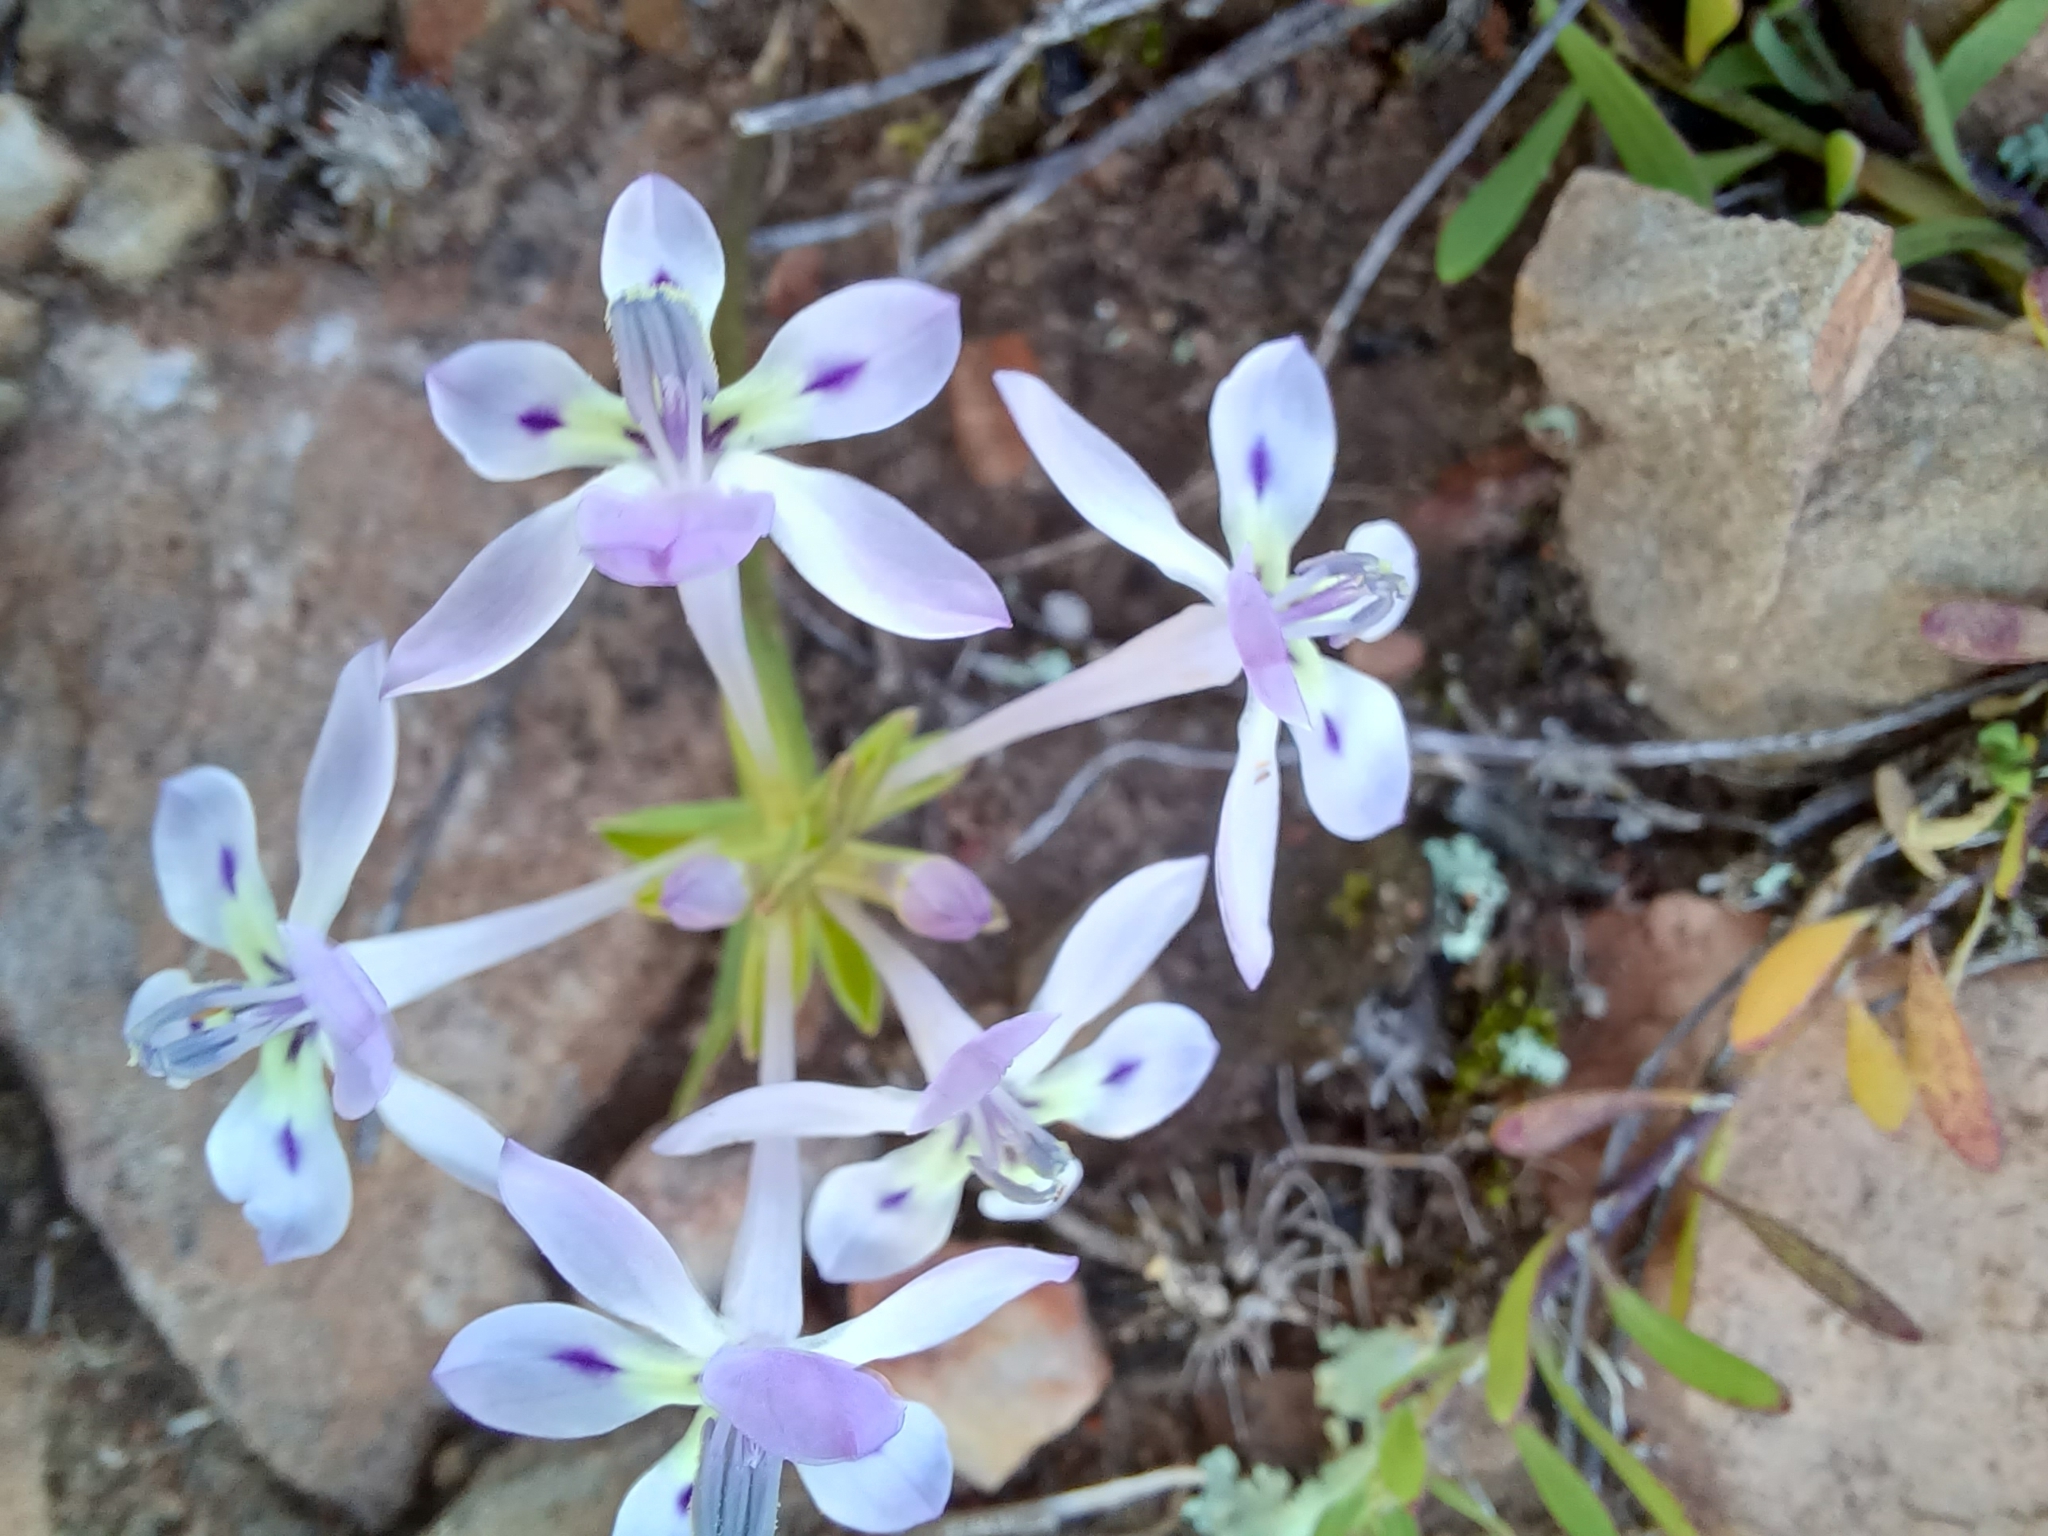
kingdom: Plantae
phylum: Tracheophyta
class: Liliopsida
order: Asparagales
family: Iridaceae
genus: Lapeirousia
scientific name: Lapeirousia pyramidalis
